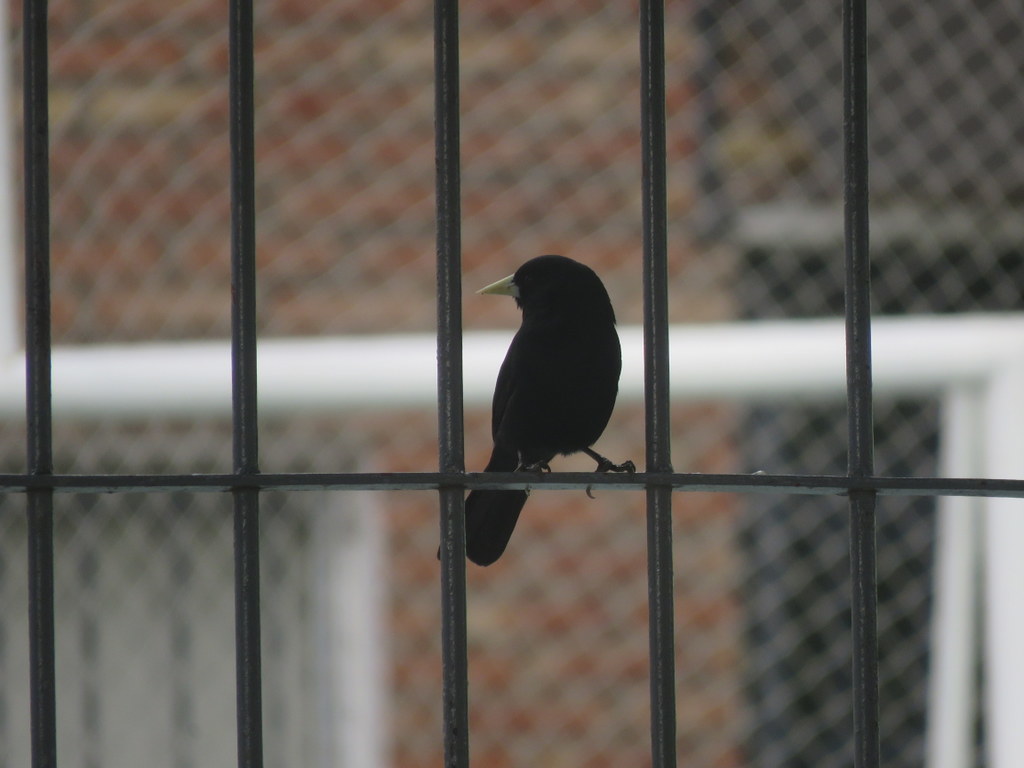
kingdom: Animalia
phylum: Chordata
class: Aves
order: Passeriformes
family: Icteridae
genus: Cacicus
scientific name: Cacicus solitarius
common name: Solitary cacique
